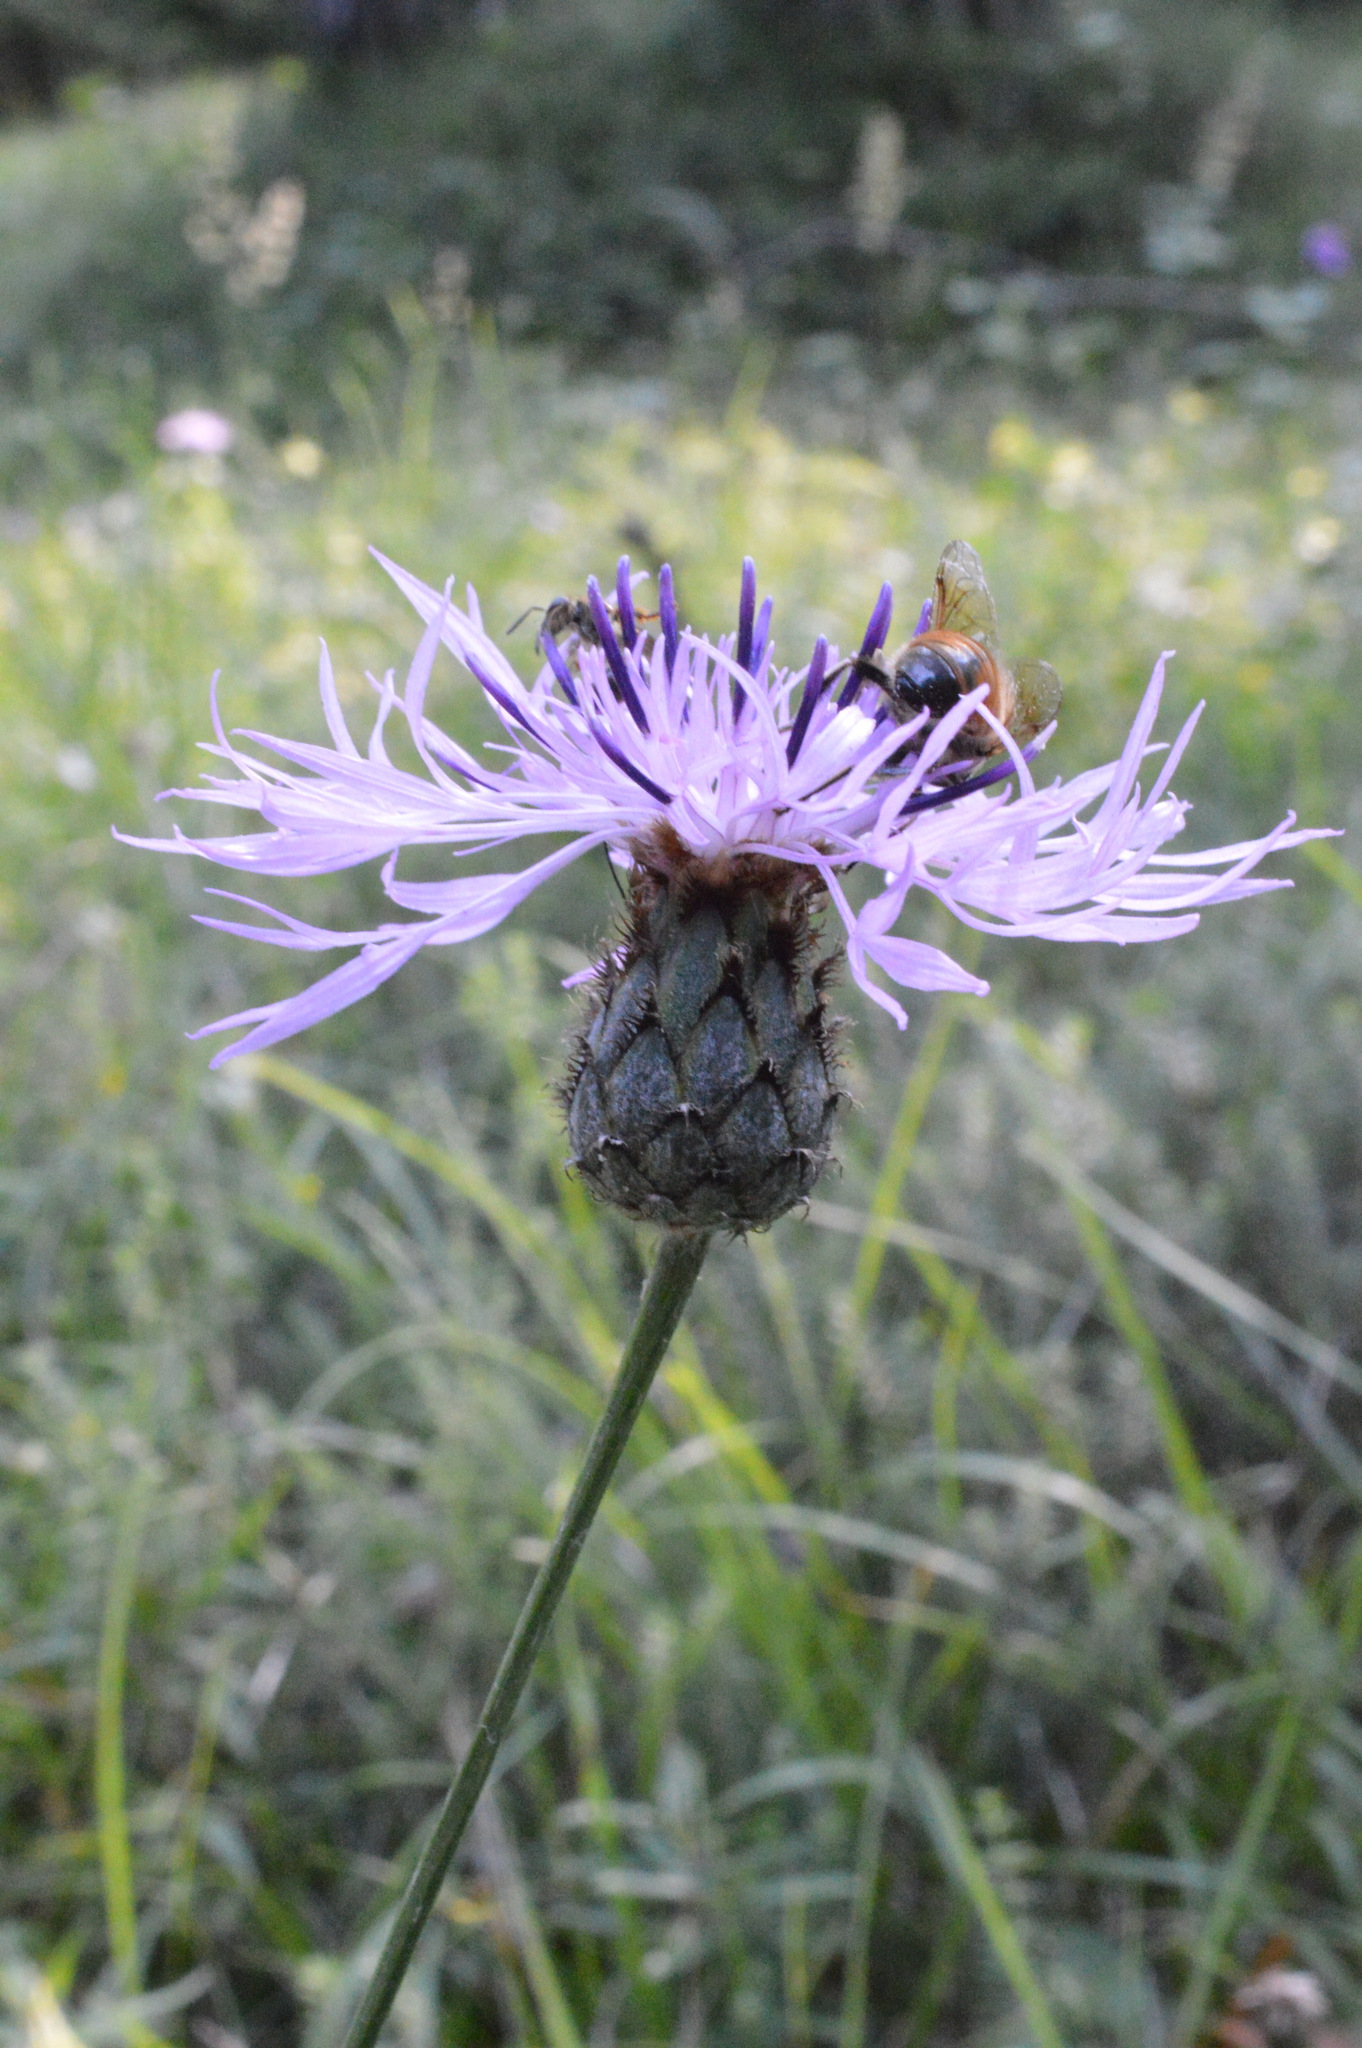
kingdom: Plantae
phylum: Tracheophyta
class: Magnoliopsida
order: Asterales
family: Asteraceae
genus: Centaurea
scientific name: Centaurea scabiosa
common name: Greater knapweed
